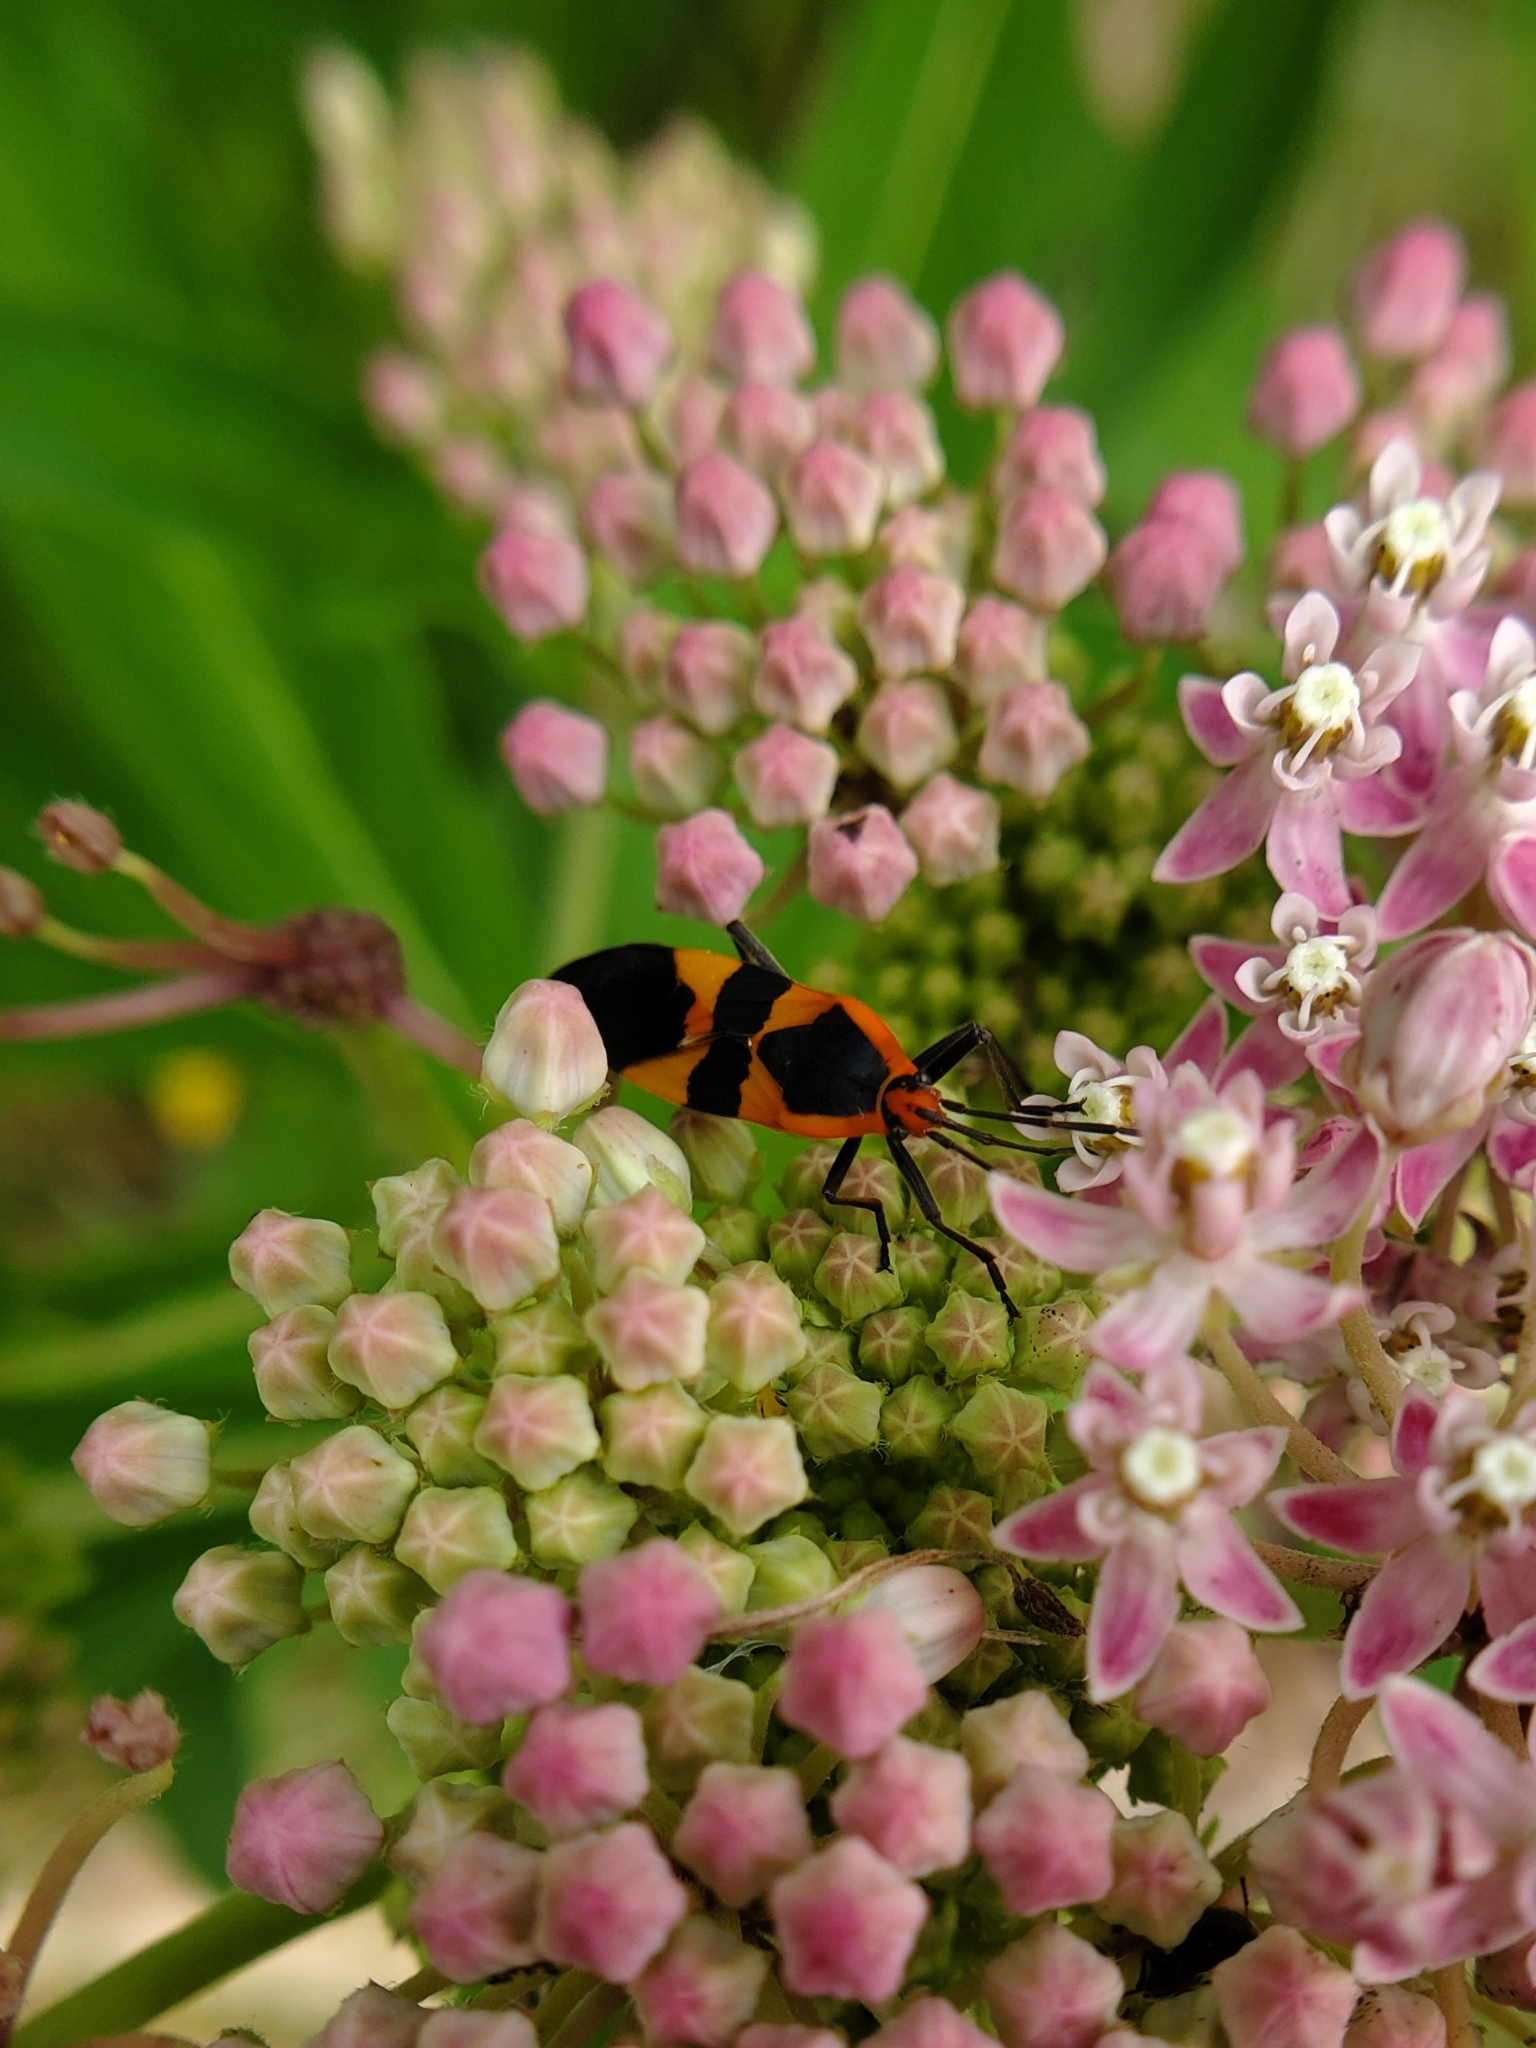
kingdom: Animalia
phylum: Arthropoda
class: Insecta
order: Hemiptera
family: Lygaeidae
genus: Oncopeltus
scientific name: Oncopeltus fasciatus
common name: Large milkweed bug
